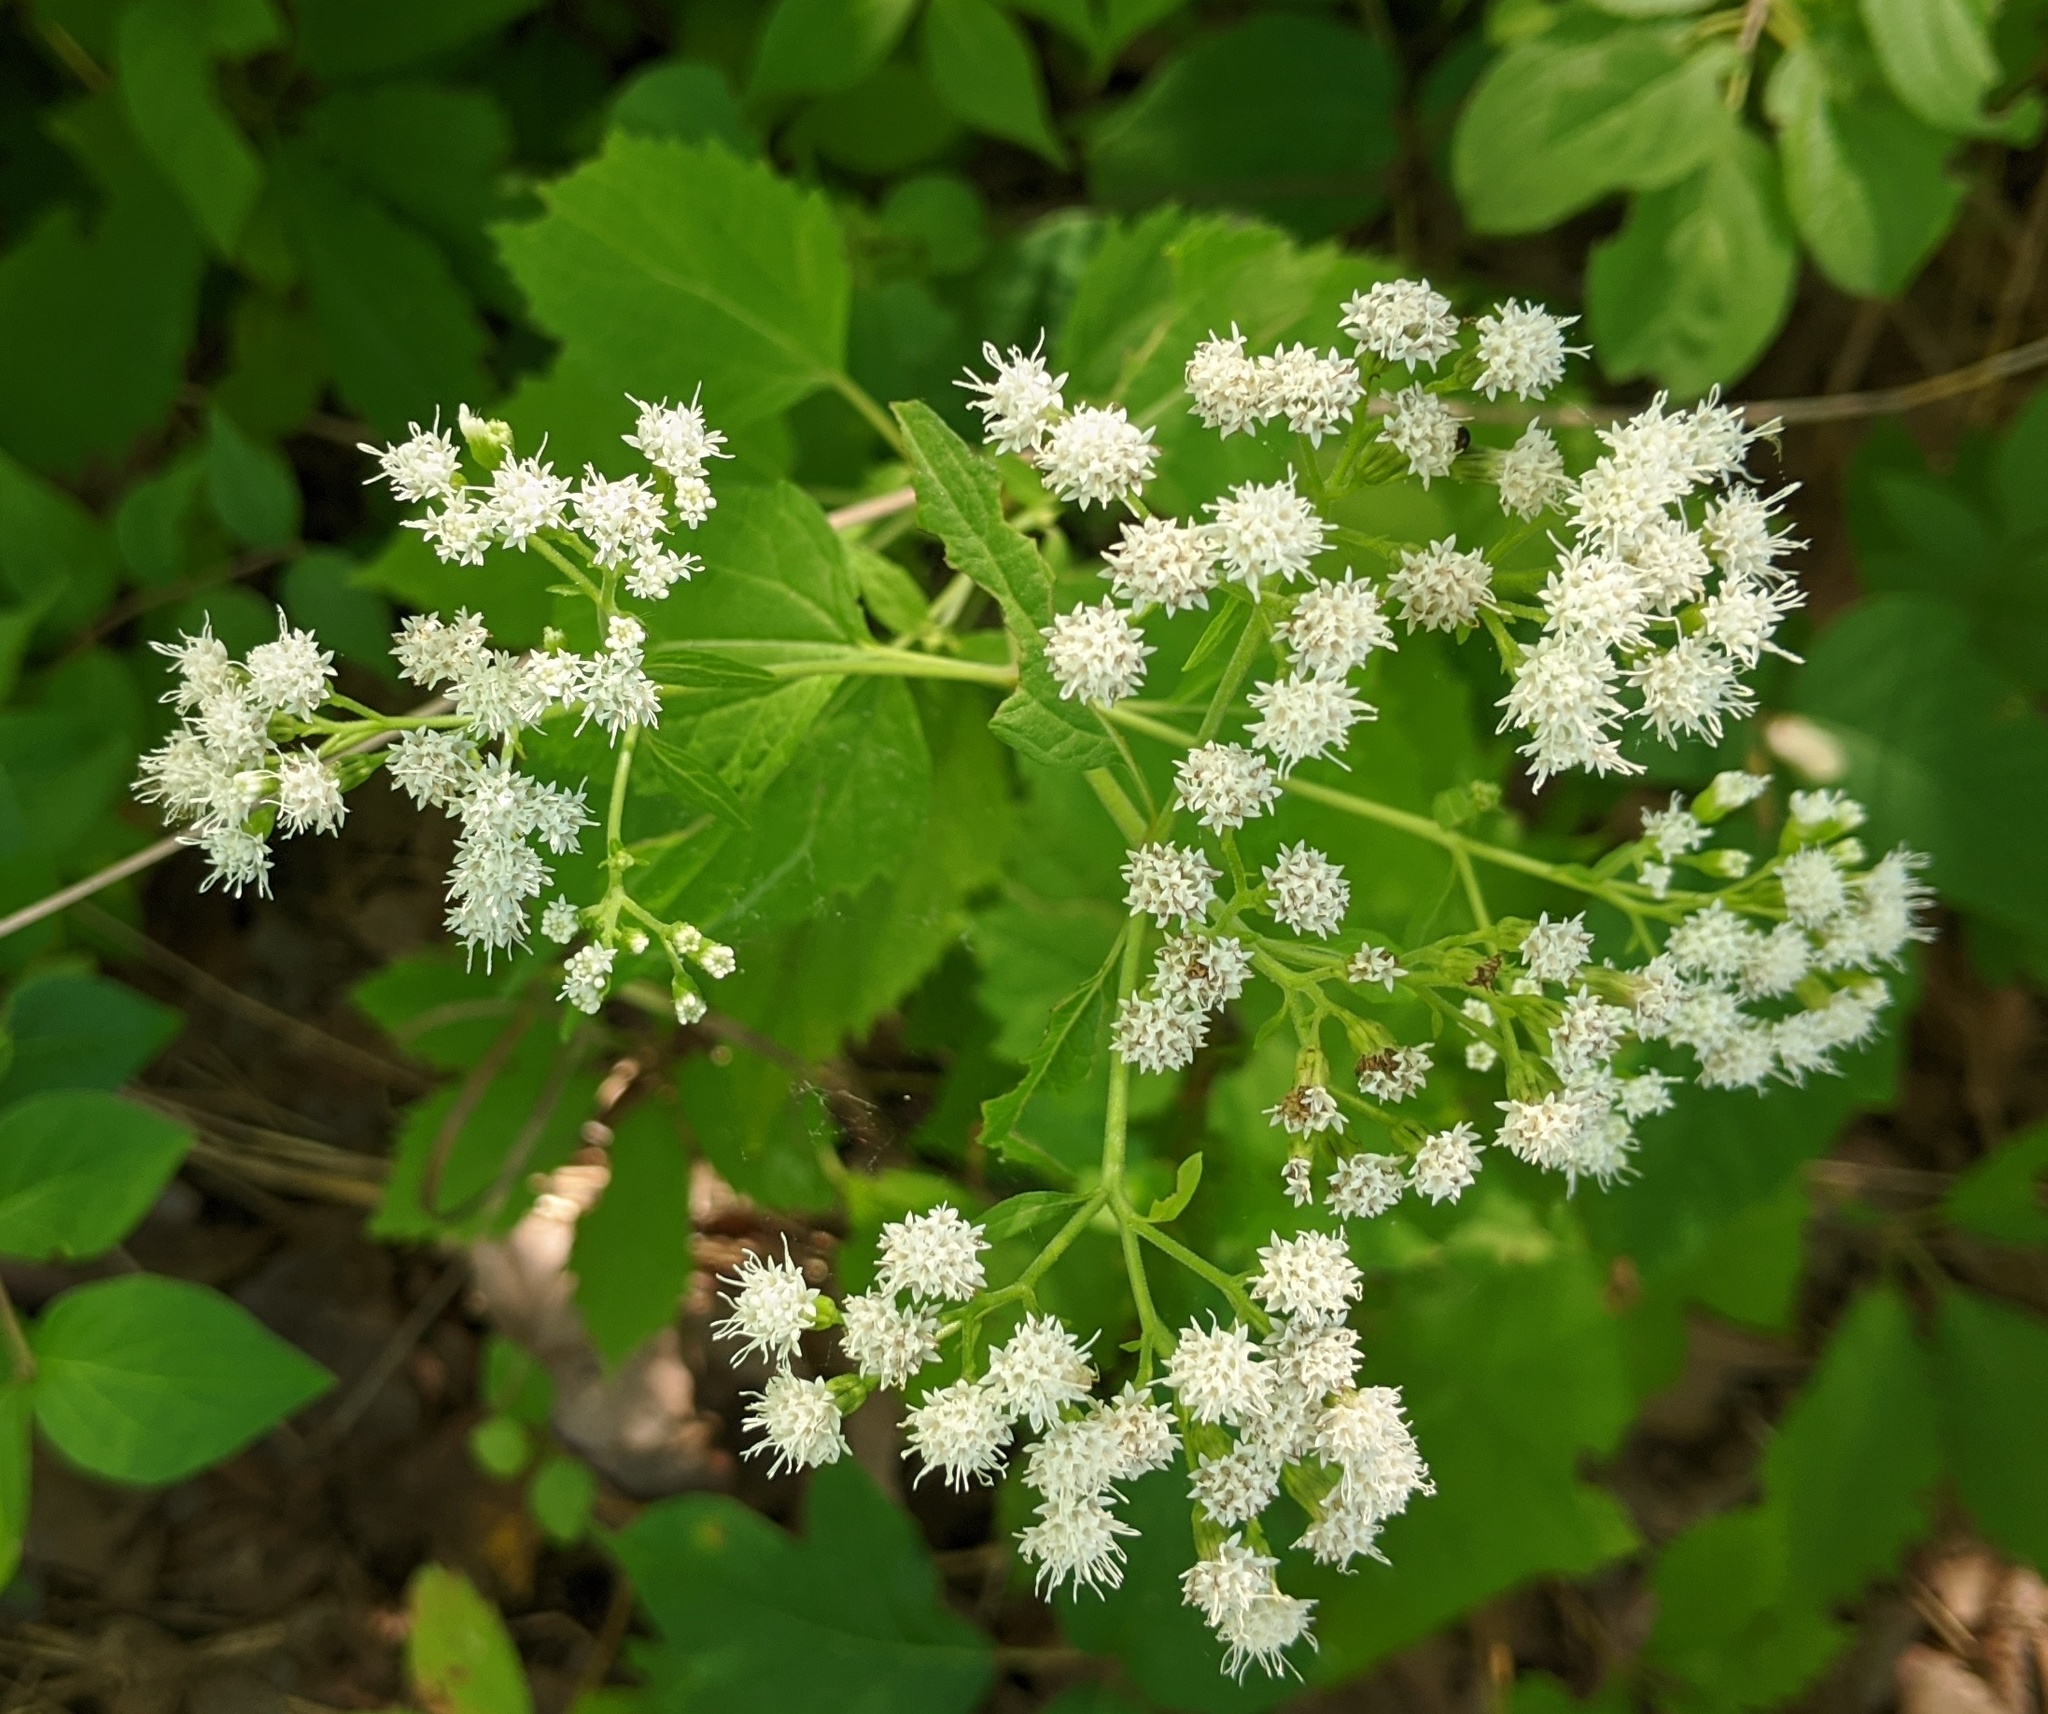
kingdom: Plantae
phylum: Tracheophyta
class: Magnoliopsida
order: Asterales
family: Asteraceae
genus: Ageratina
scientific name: Ageratina altissima
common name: White snakeroot
